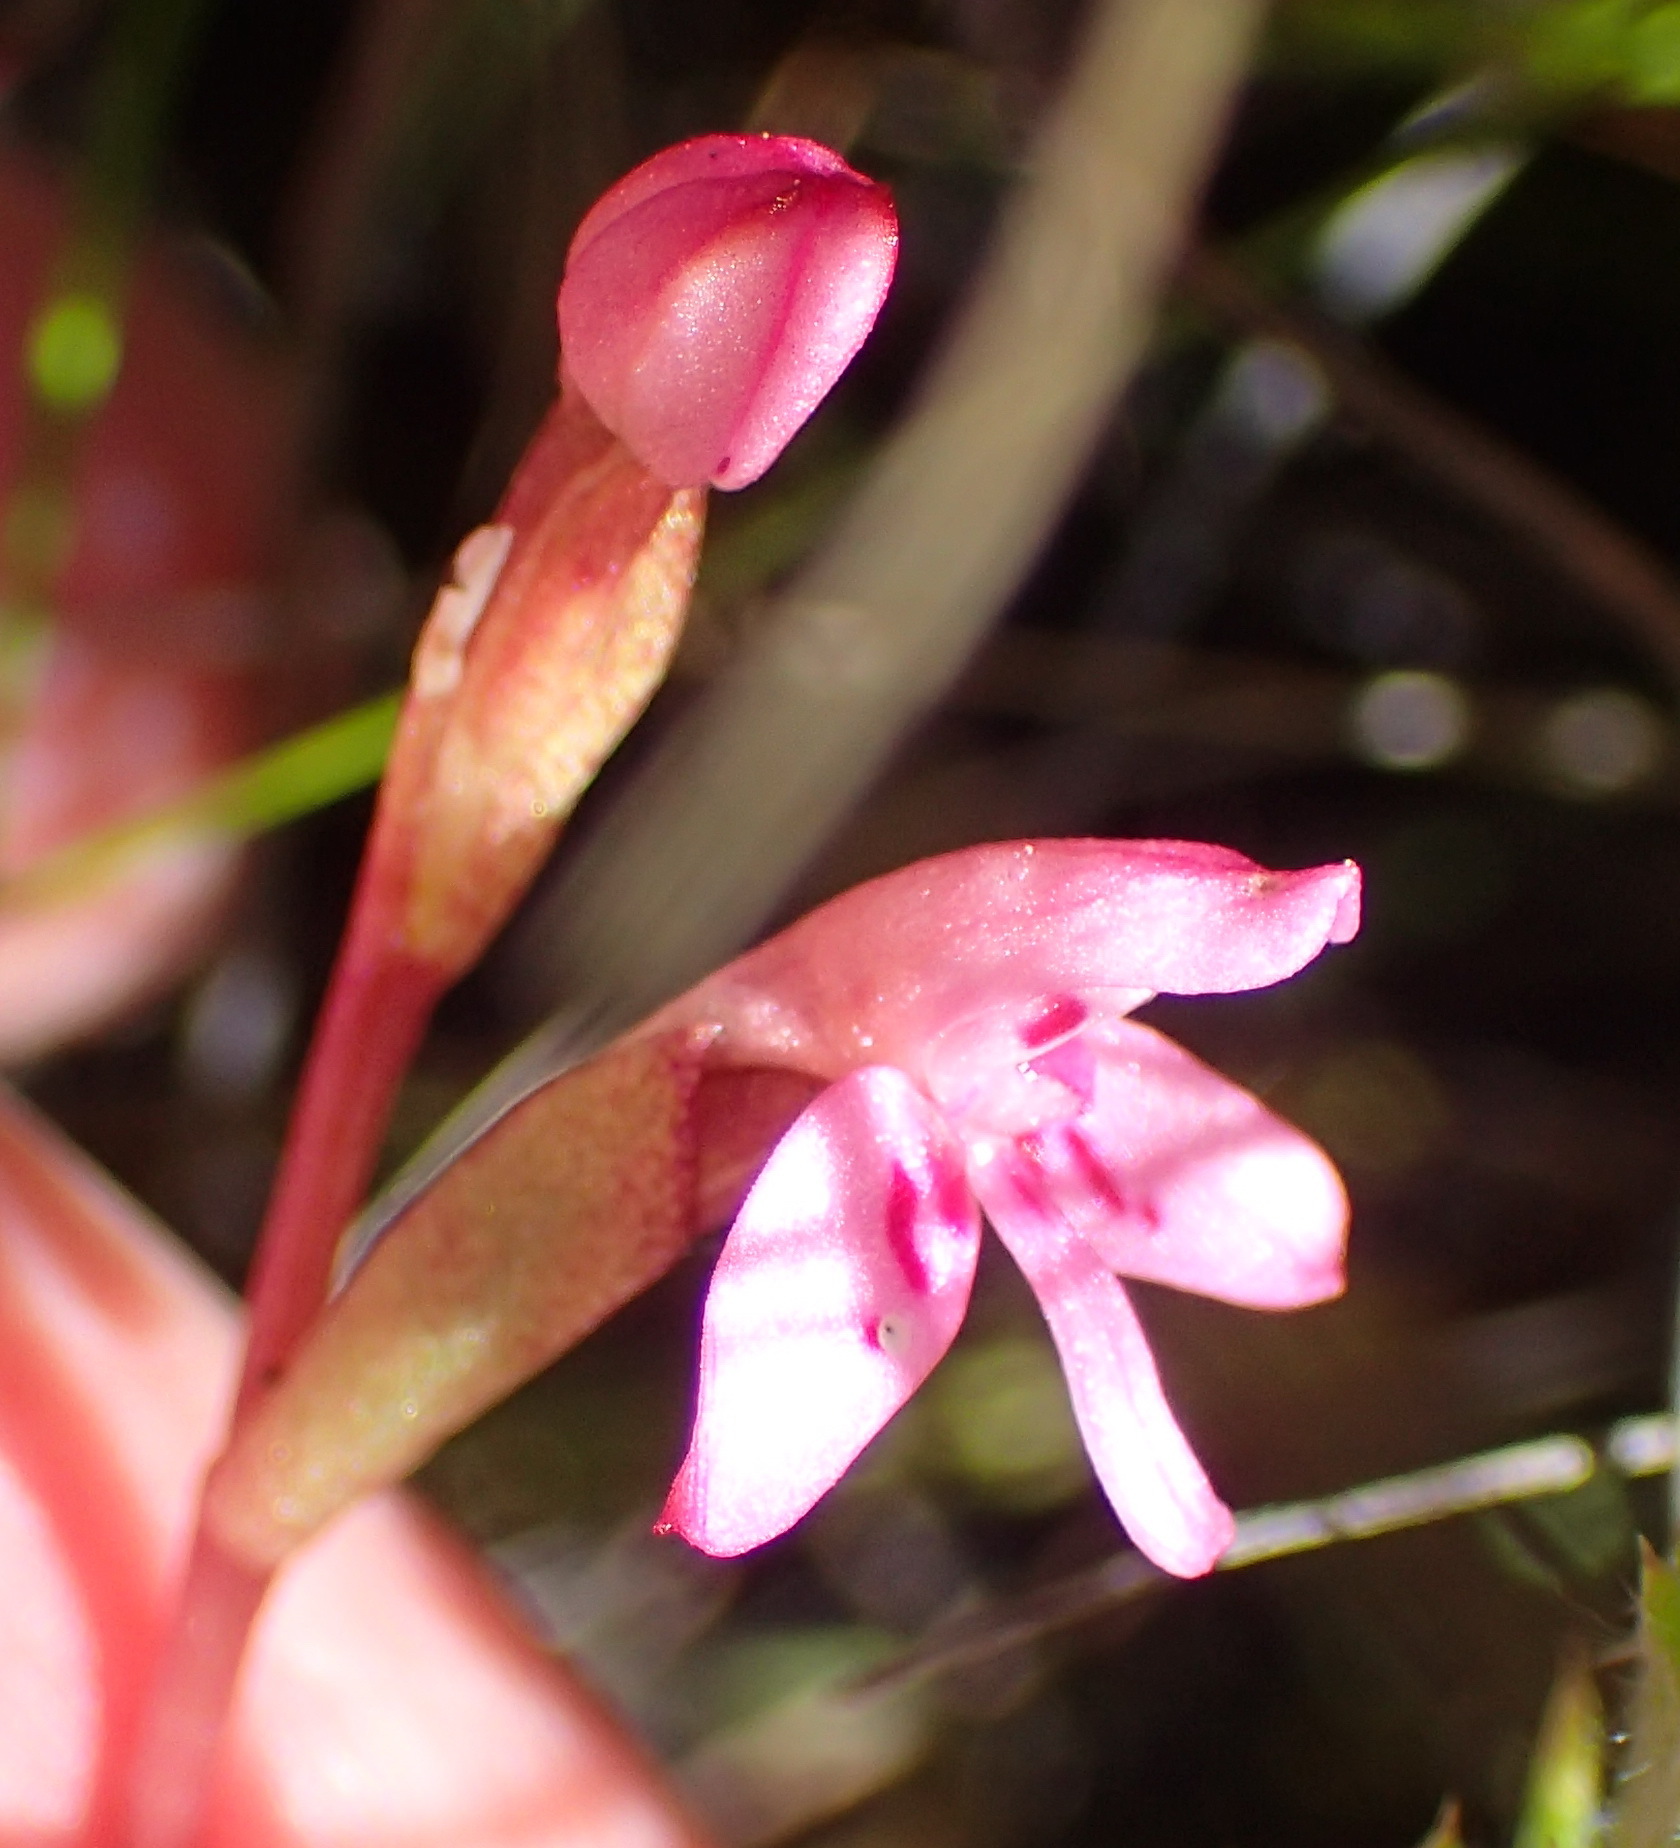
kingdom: Plantae
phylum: Tracheophyta
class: Liliopsida
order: Asparagales
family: Orchidaceae
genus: Disa
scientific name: Disa vaginata
